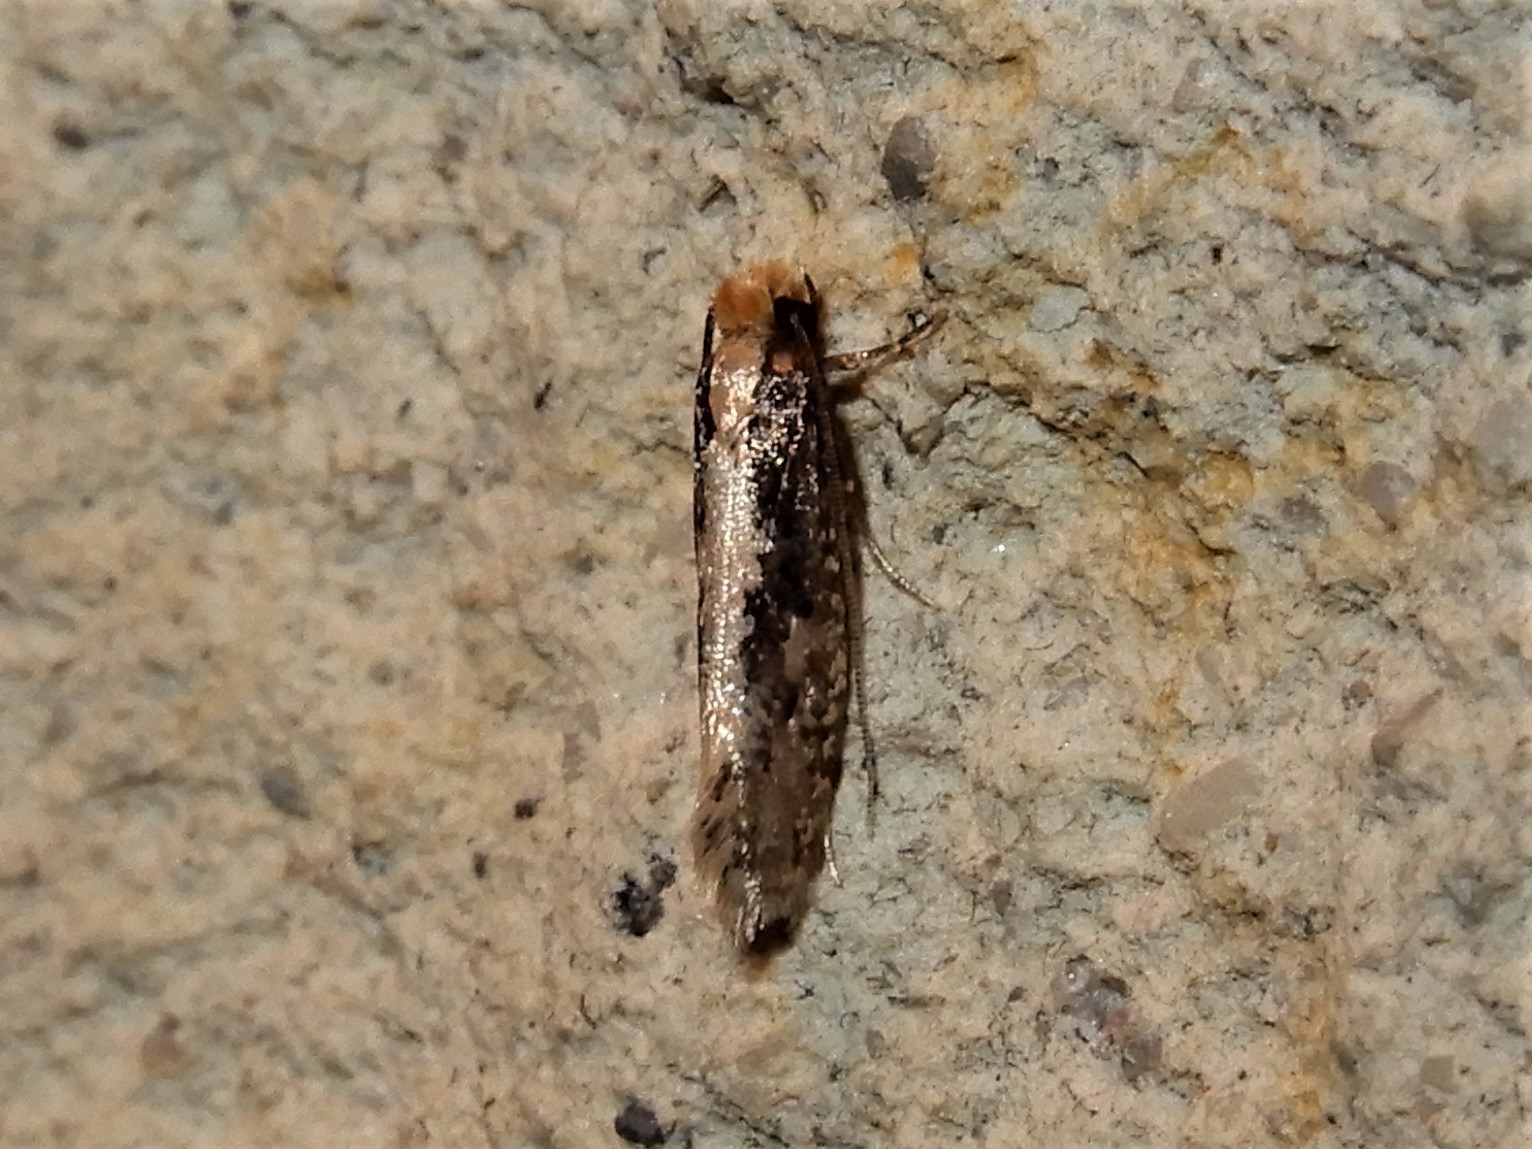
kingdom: Animalia
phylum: Arthropoda
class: Insecta
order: Lepidoptera
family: Tineidae
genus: Monopis
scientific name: Monopis crocicapitella
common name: Moth
